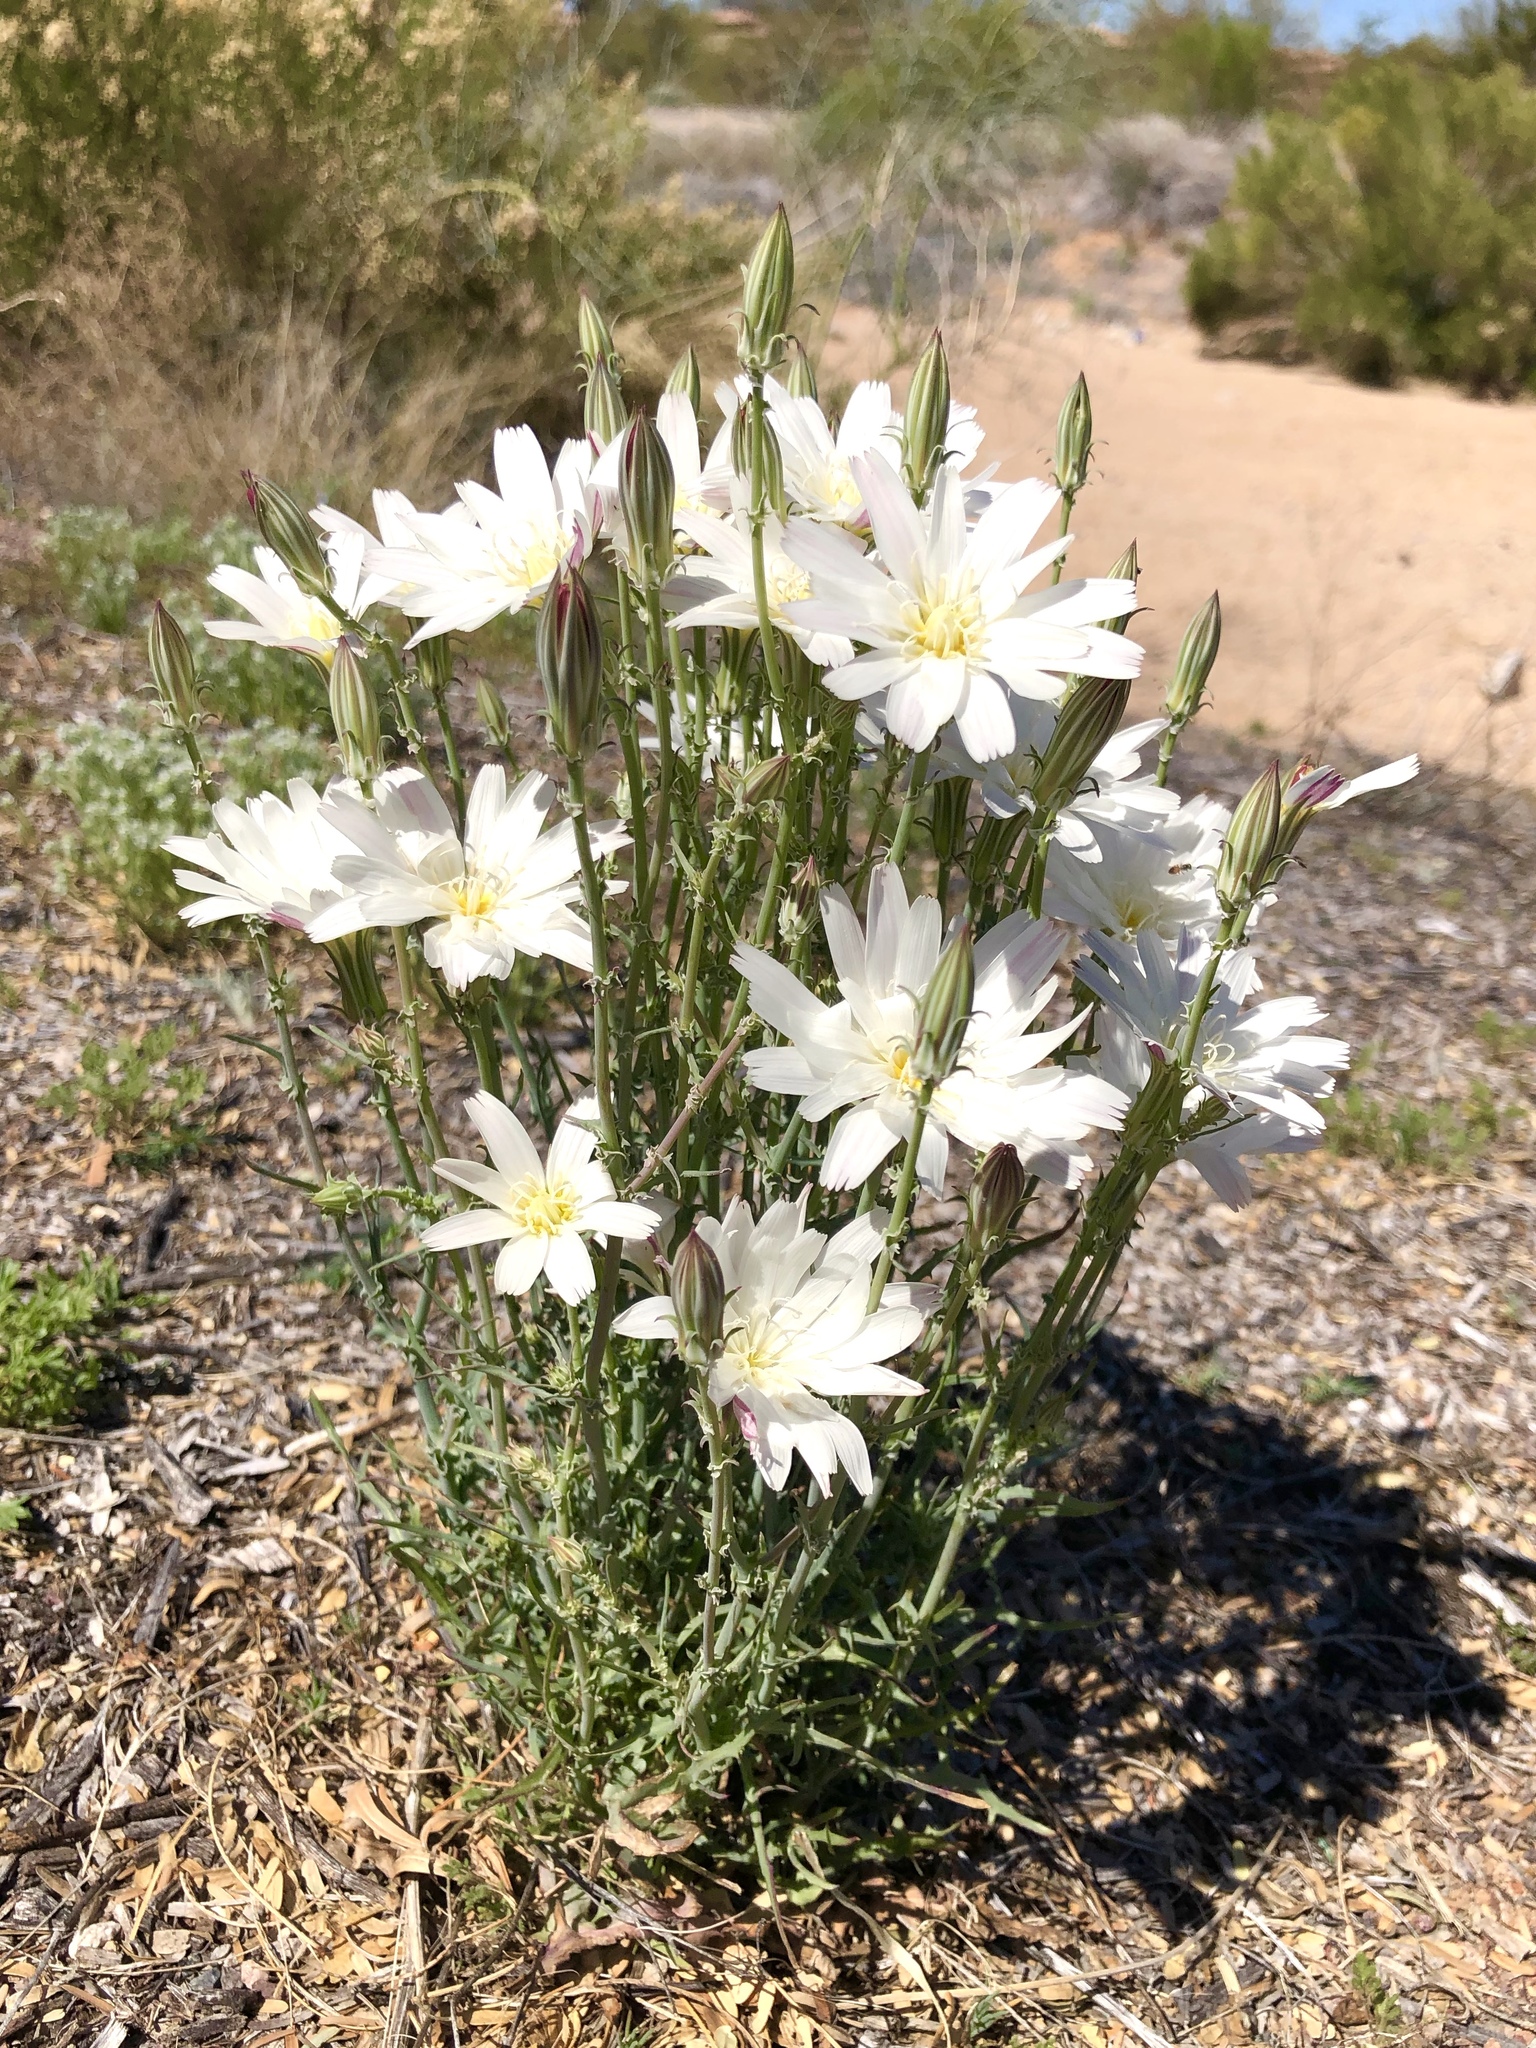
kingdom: Plantae
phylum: Tracheophyta
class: Magnoliopsida
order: Asterales
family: Asteraceae
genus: Rafinesquia
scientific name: Rafinesquia neomexicana
